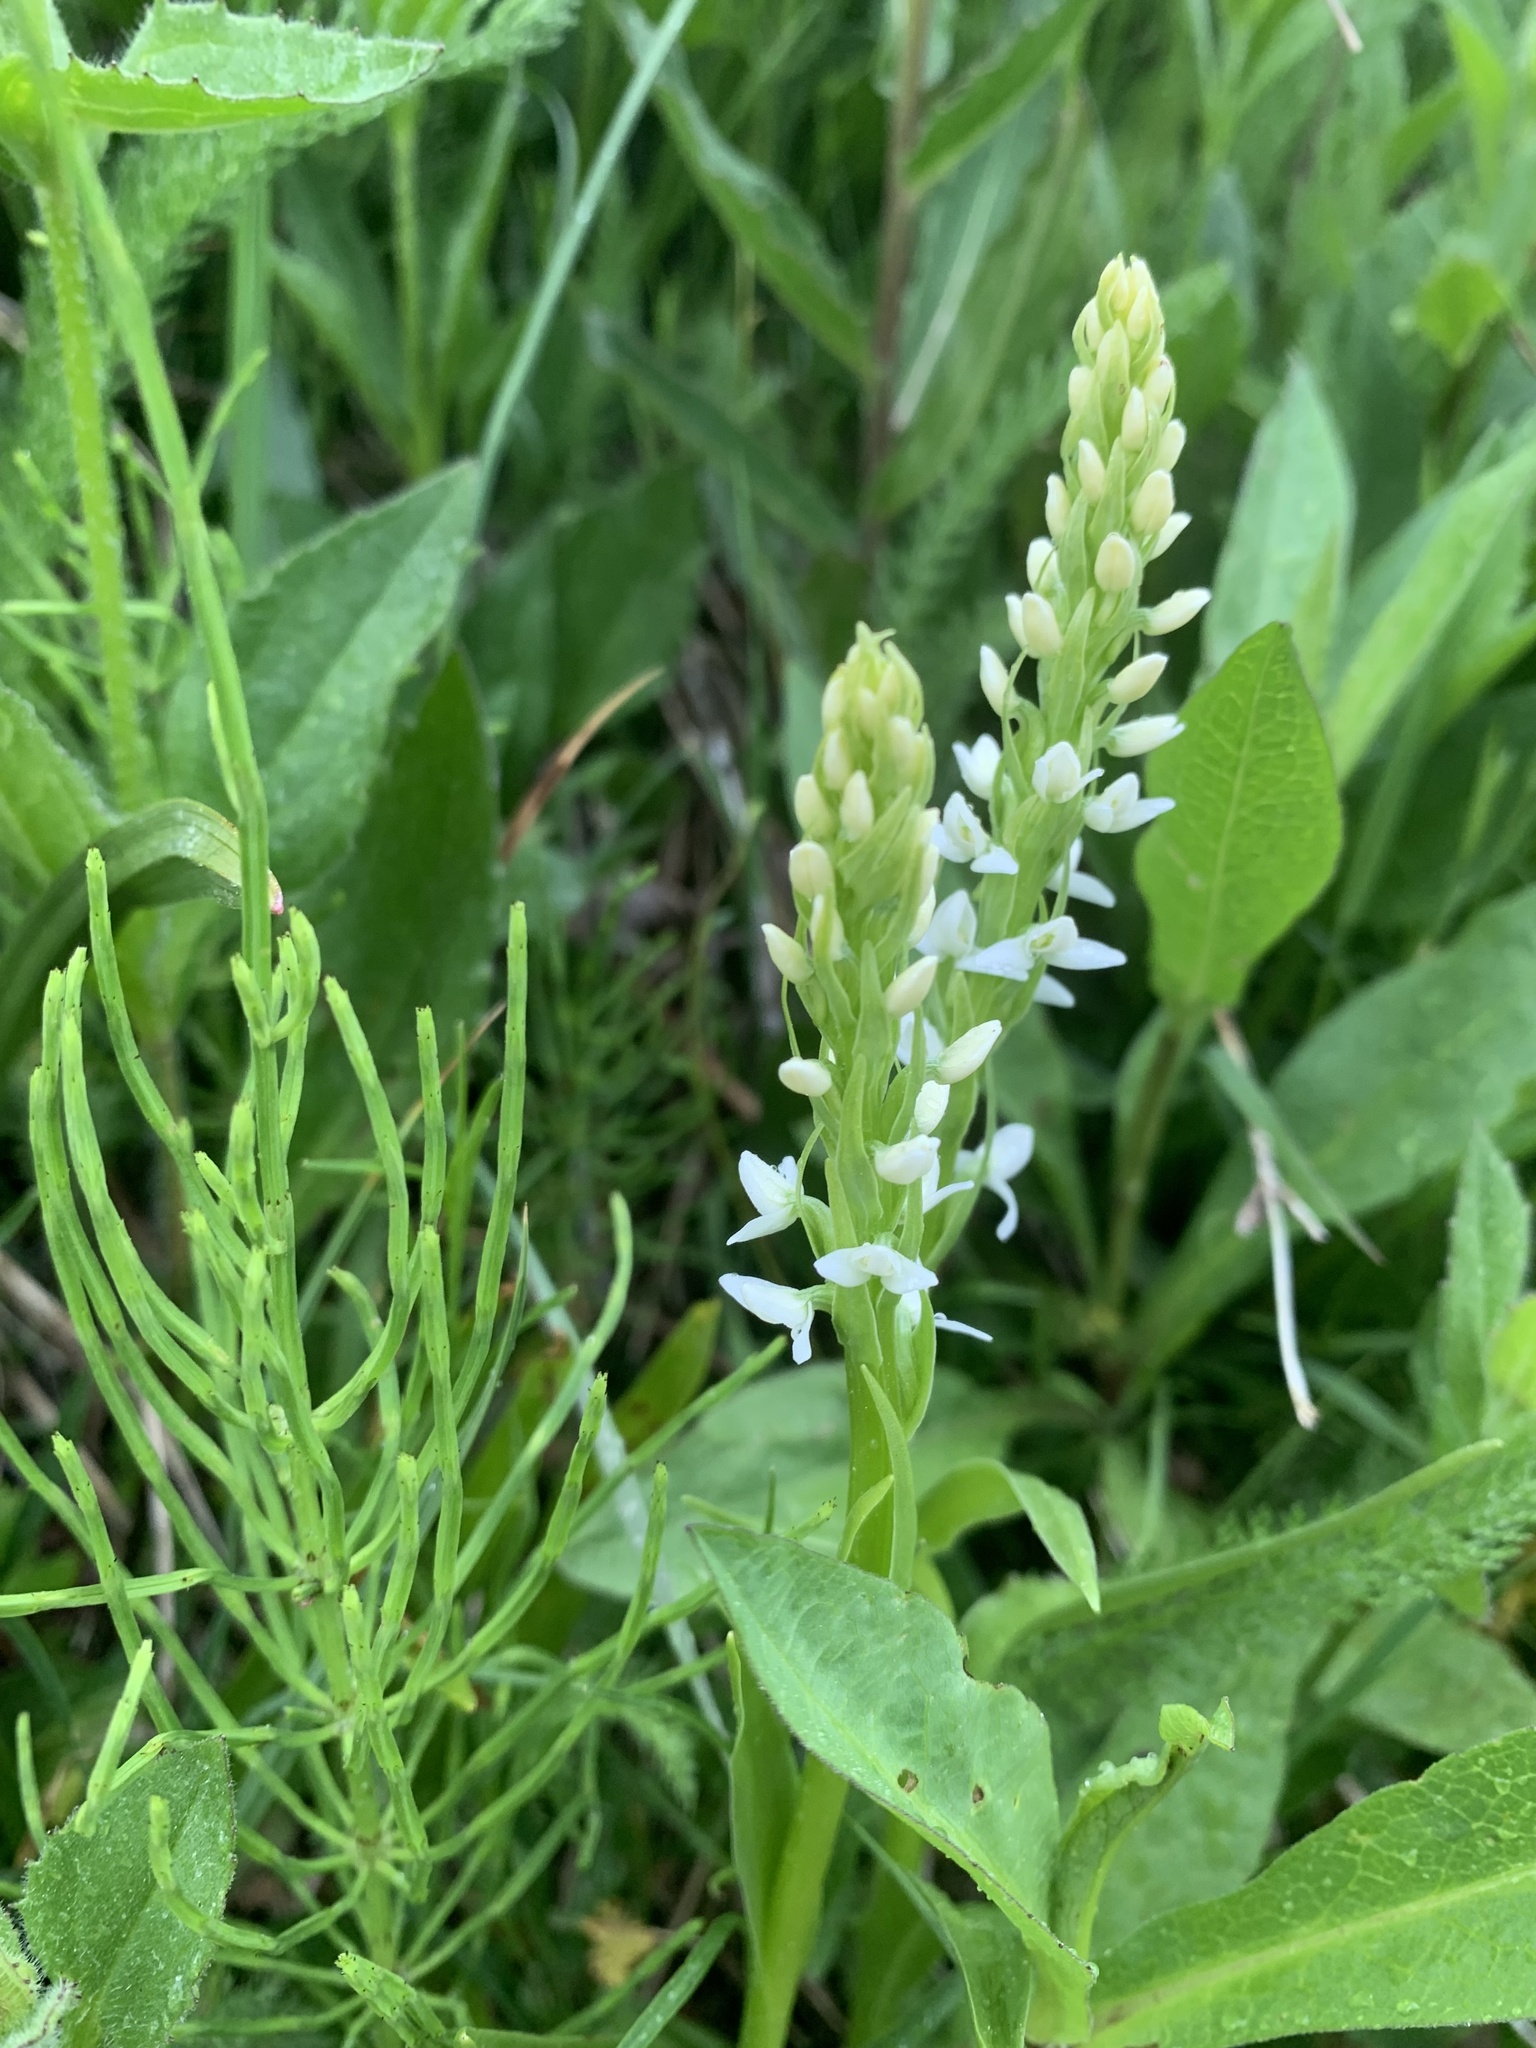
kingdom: Plantae
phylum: Tracheophyta
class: Liliopsida
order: Asparagales
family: Orchidaceae
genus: Platanthera
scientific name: Platanthera dilatata
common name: Bog candles
